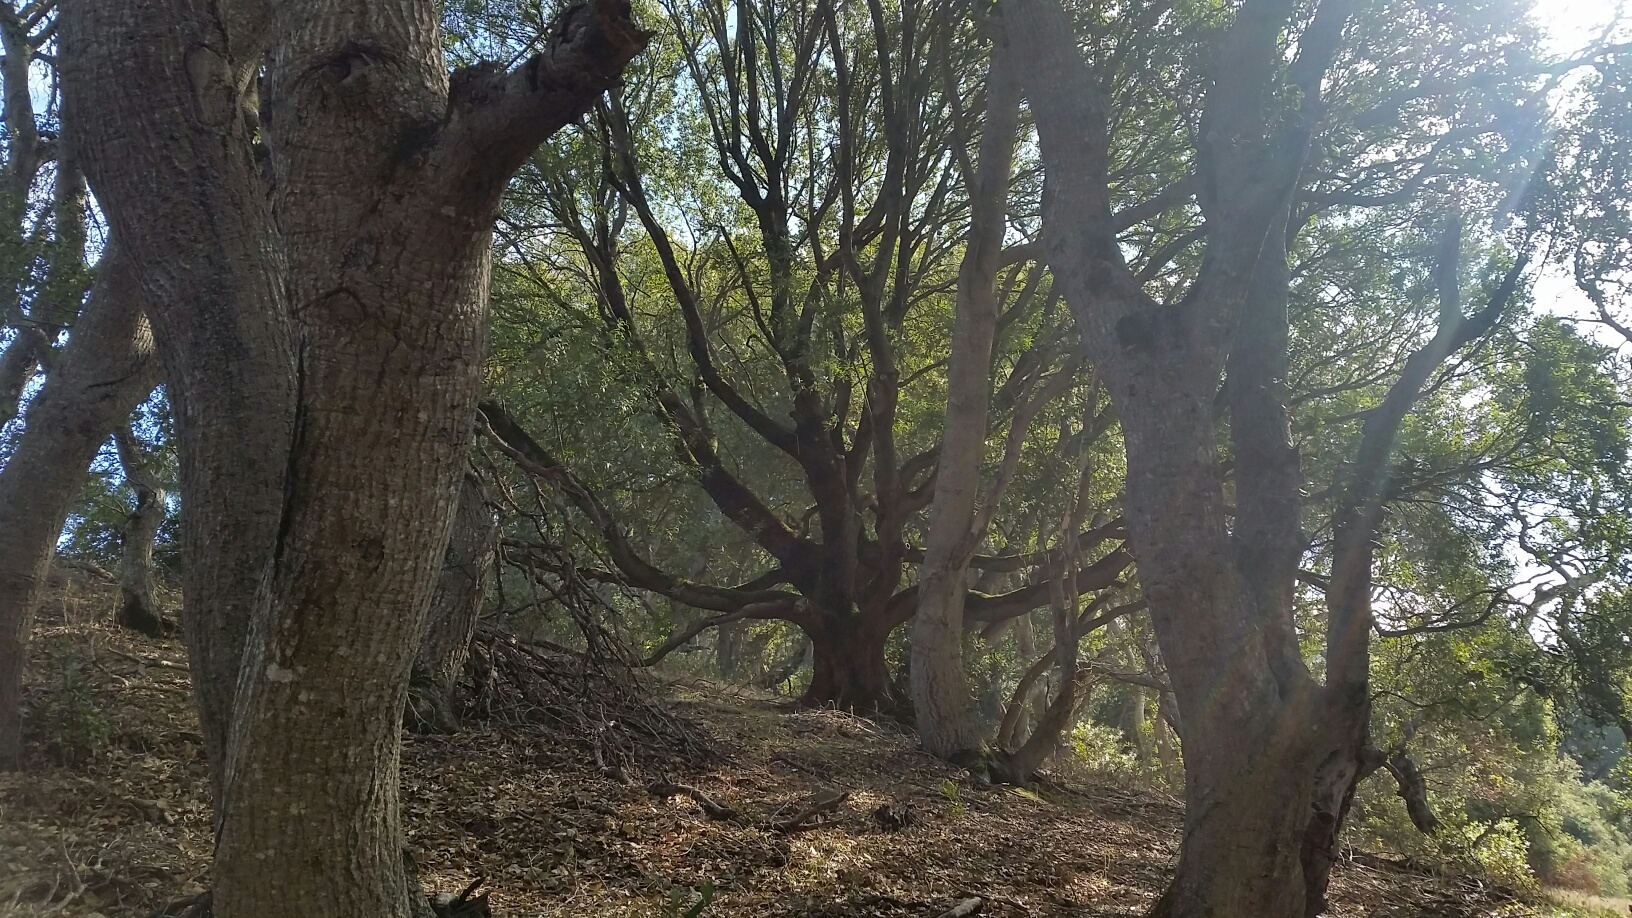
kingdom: Plantae
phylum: Tracheophyta
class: Magnoliopsida
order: Laurales
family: Lauraceae
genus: Umbellularia
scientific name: Umbellularia californica
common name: California bay
